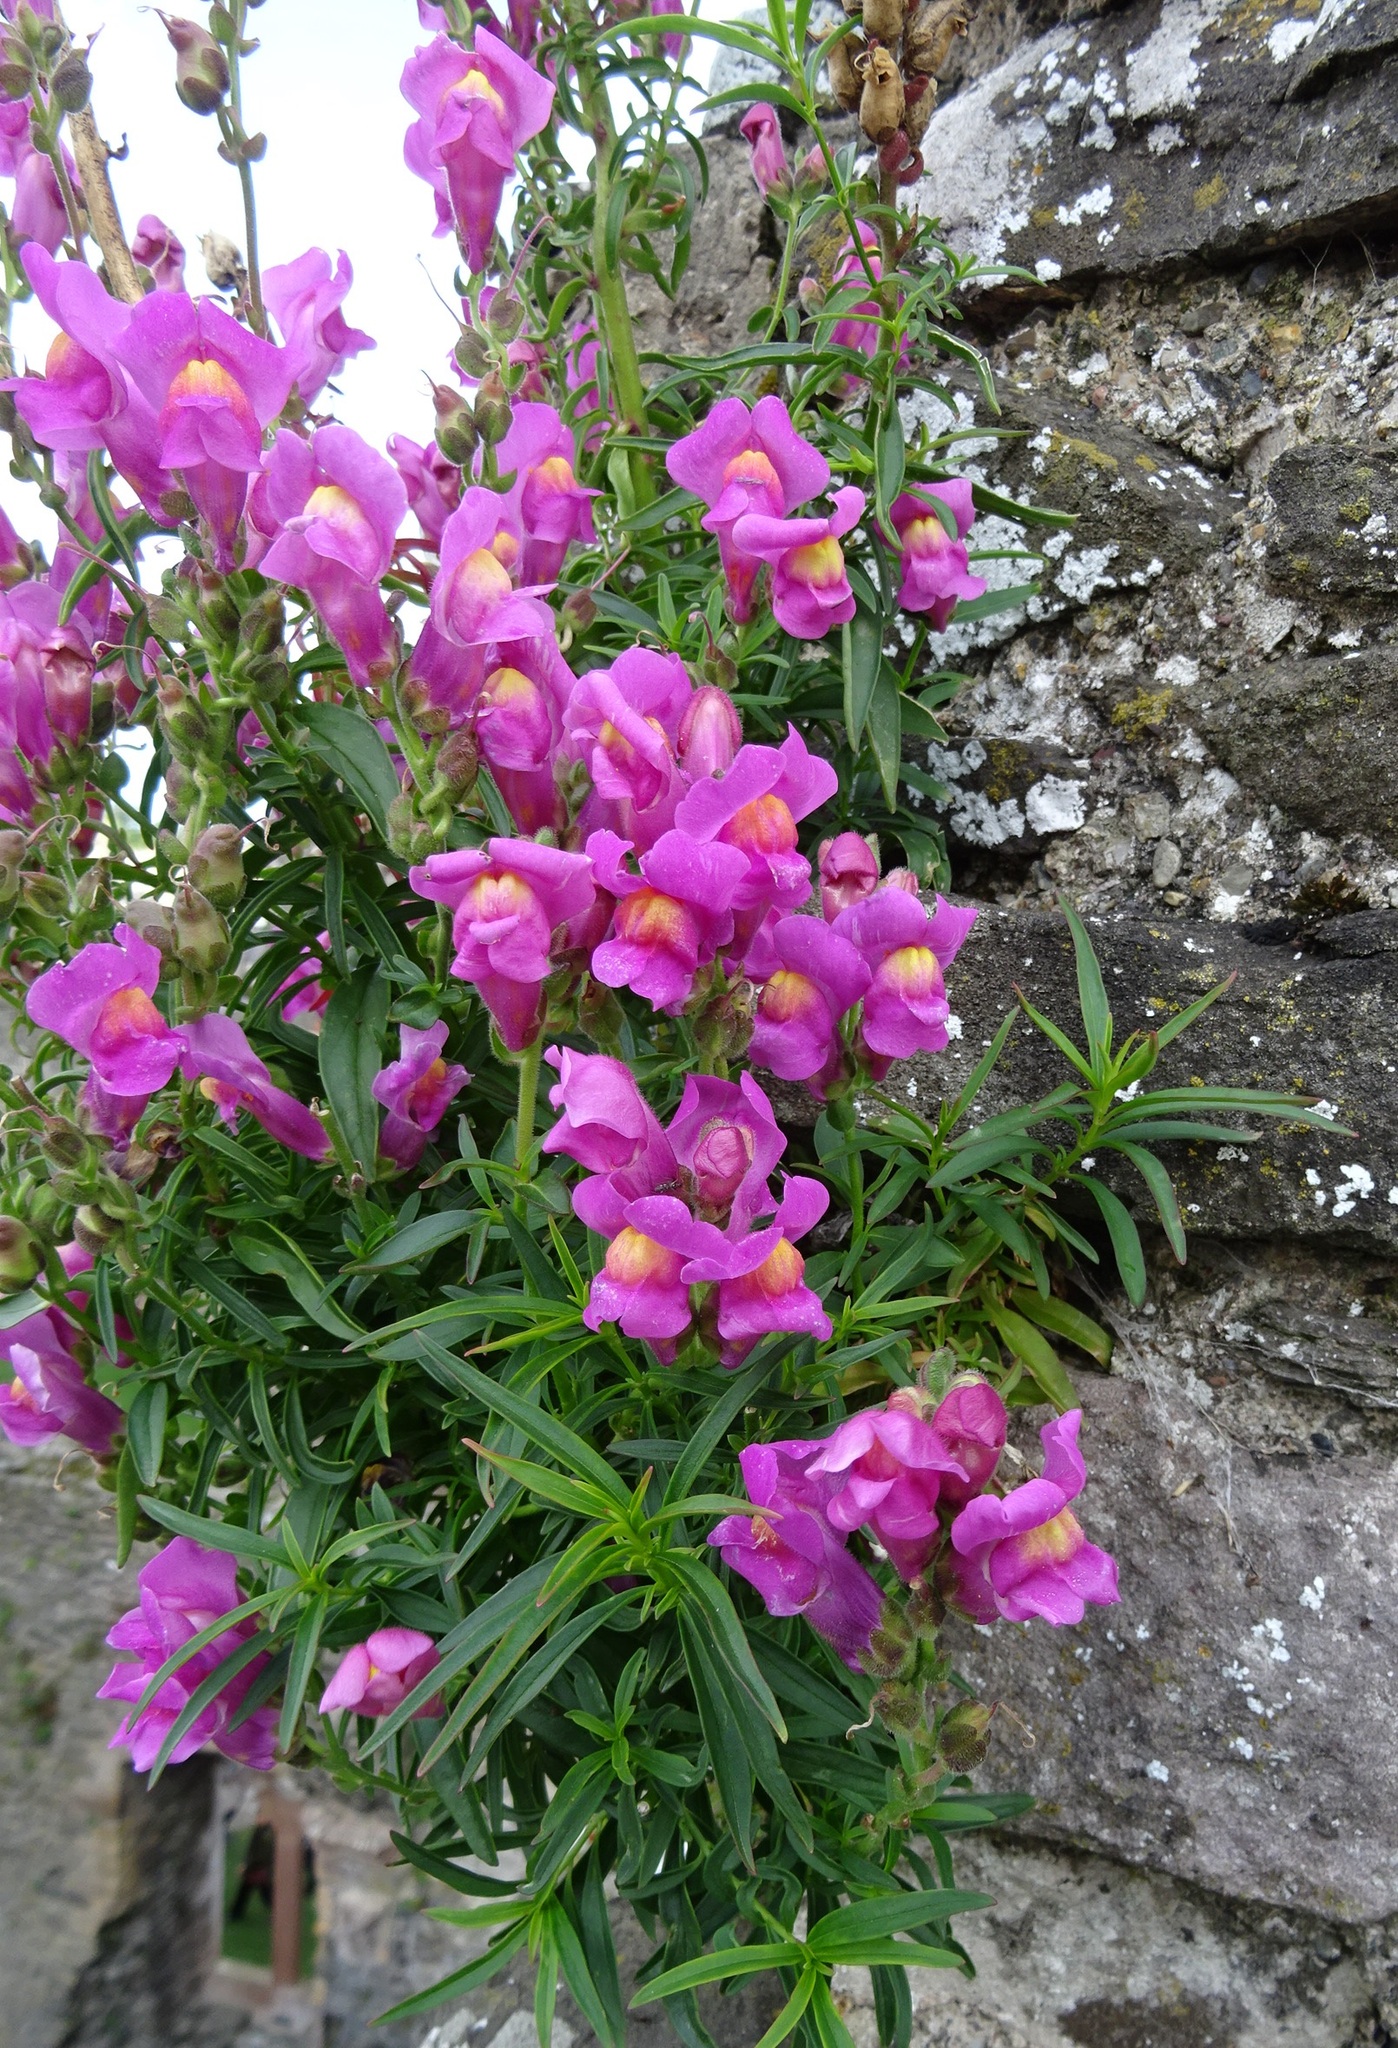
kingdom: Plantae
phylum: Tracheophyta
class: Magnoliopsida
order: Lamiales
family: Plantaginaceae
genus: Antirrhinum
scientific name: Antirrhinum majus
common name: Snapdragon
